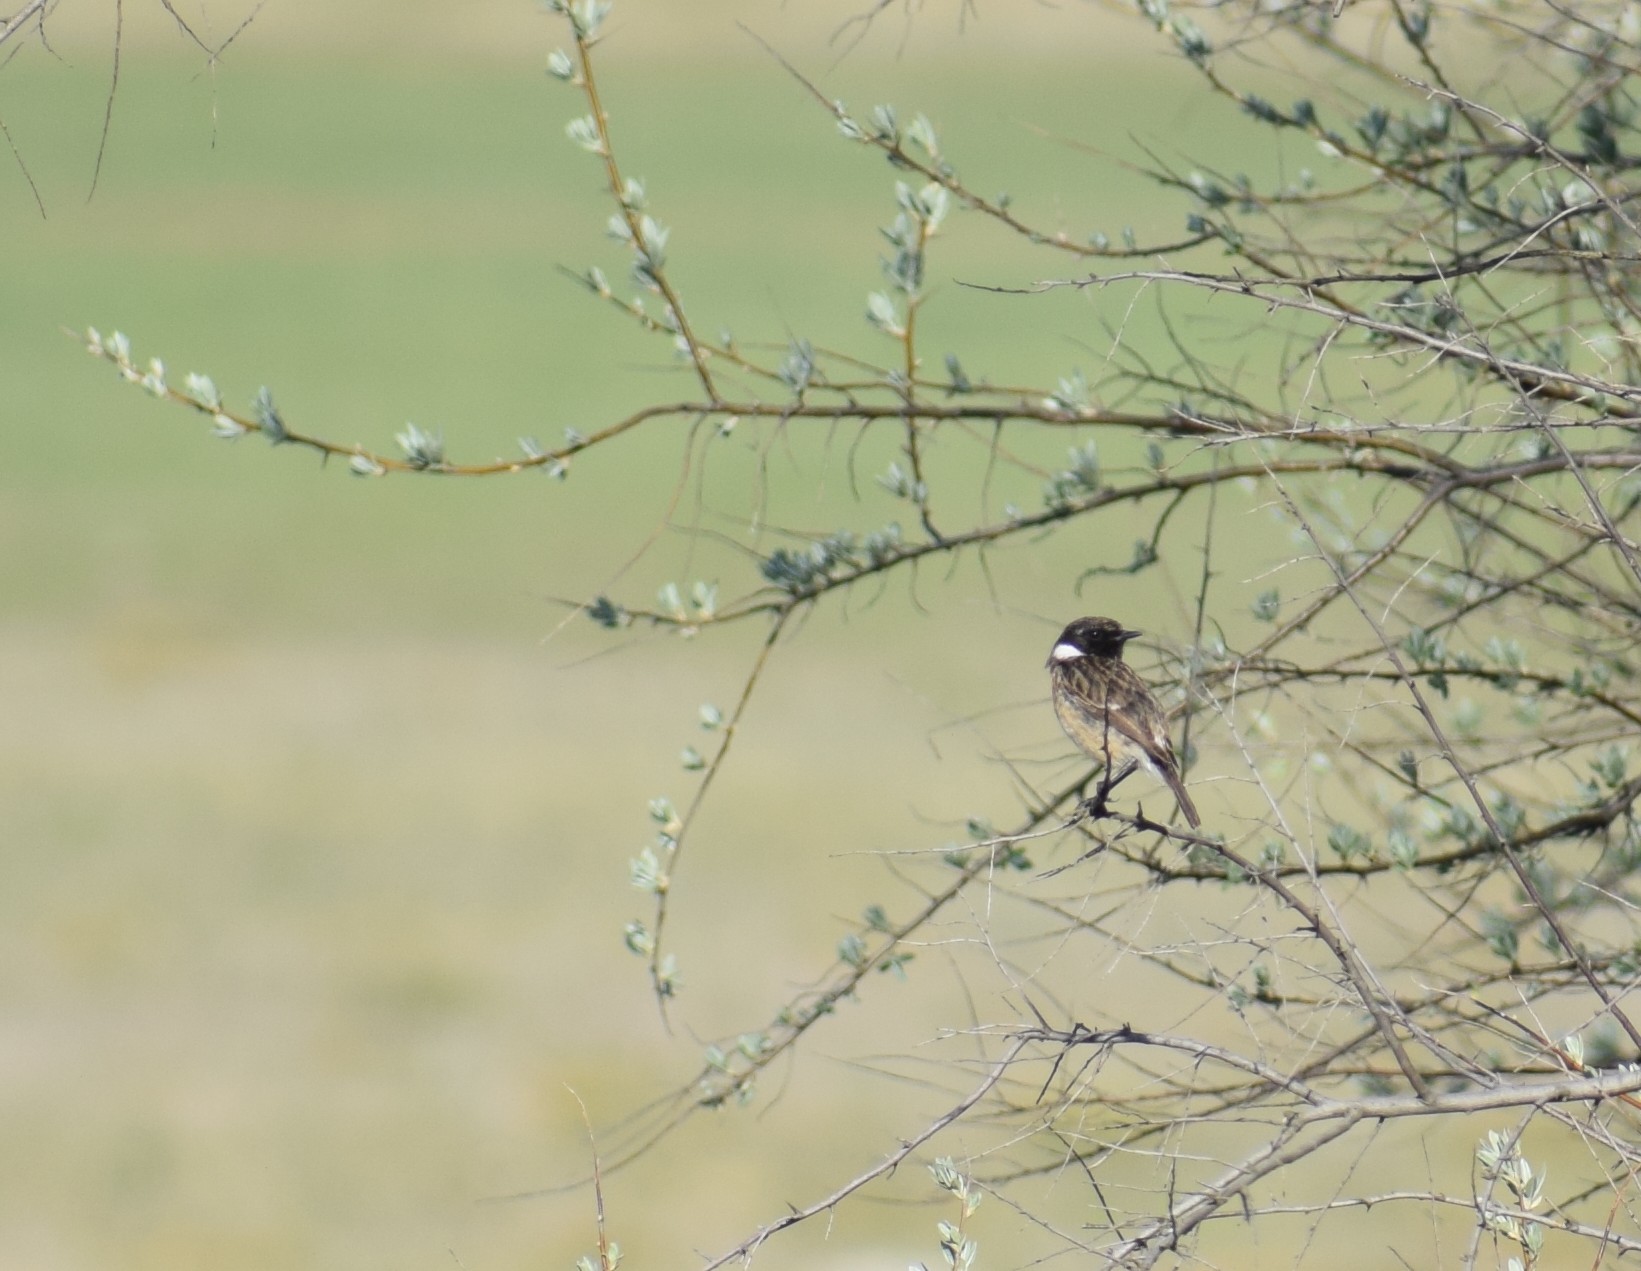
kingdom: Animalia
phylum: Chordata
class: Aves
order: Passeriformes
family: Muscicapidae
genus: Saxicola
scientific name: Saxicola rubicola
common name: European stonechat
